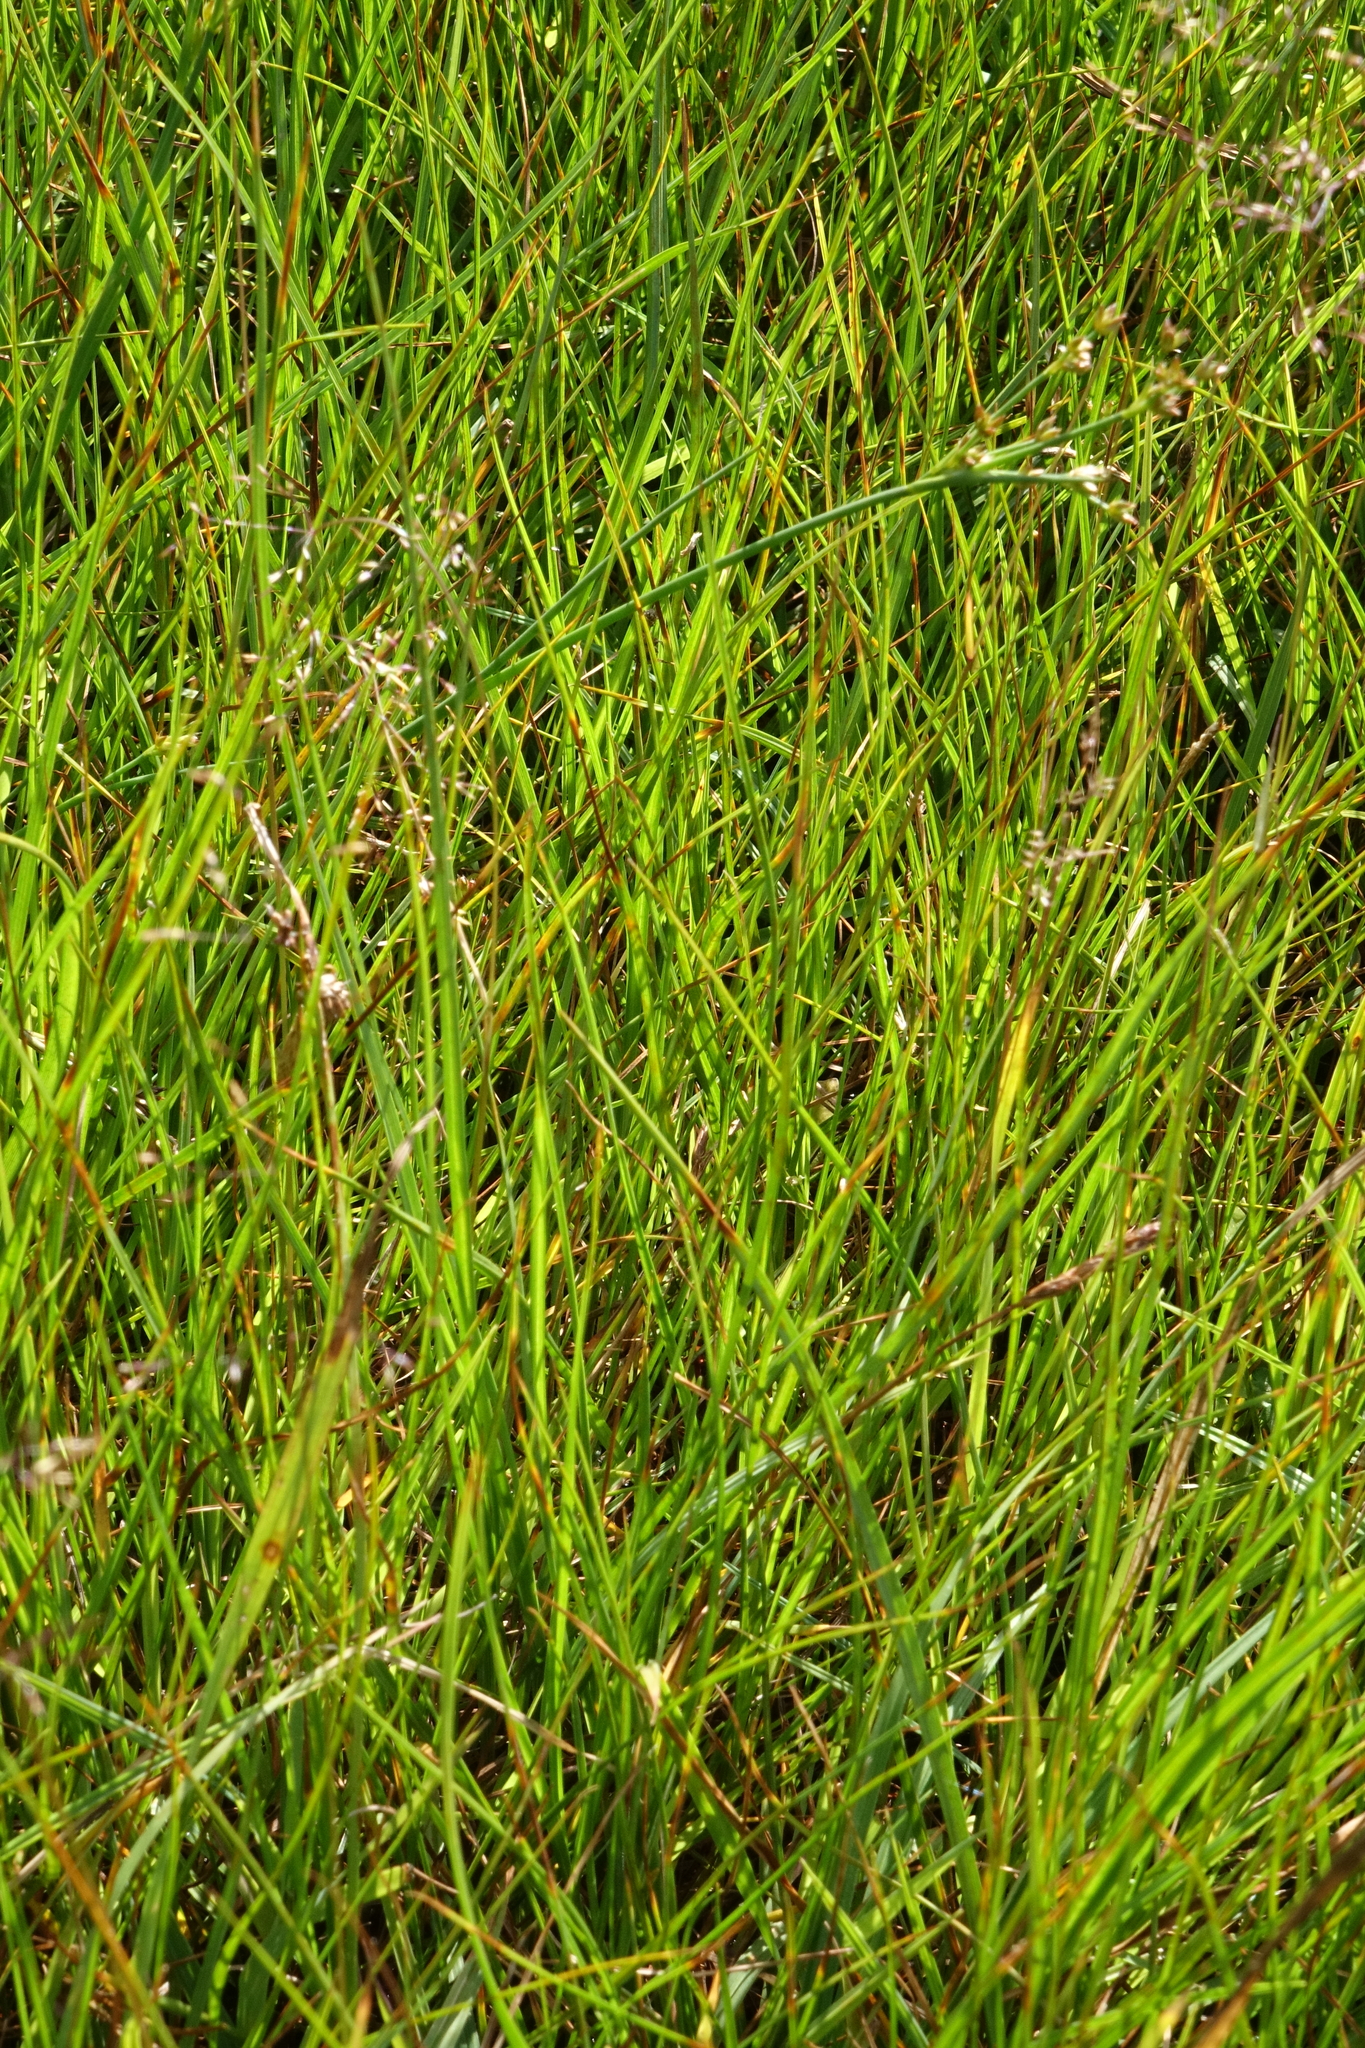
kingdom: Plantae
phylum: Tracheophyta
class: Liliopsida
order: Poales
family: Juncaceae
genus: Juncus
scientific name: Juncus articulatus
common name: Jointed rush
